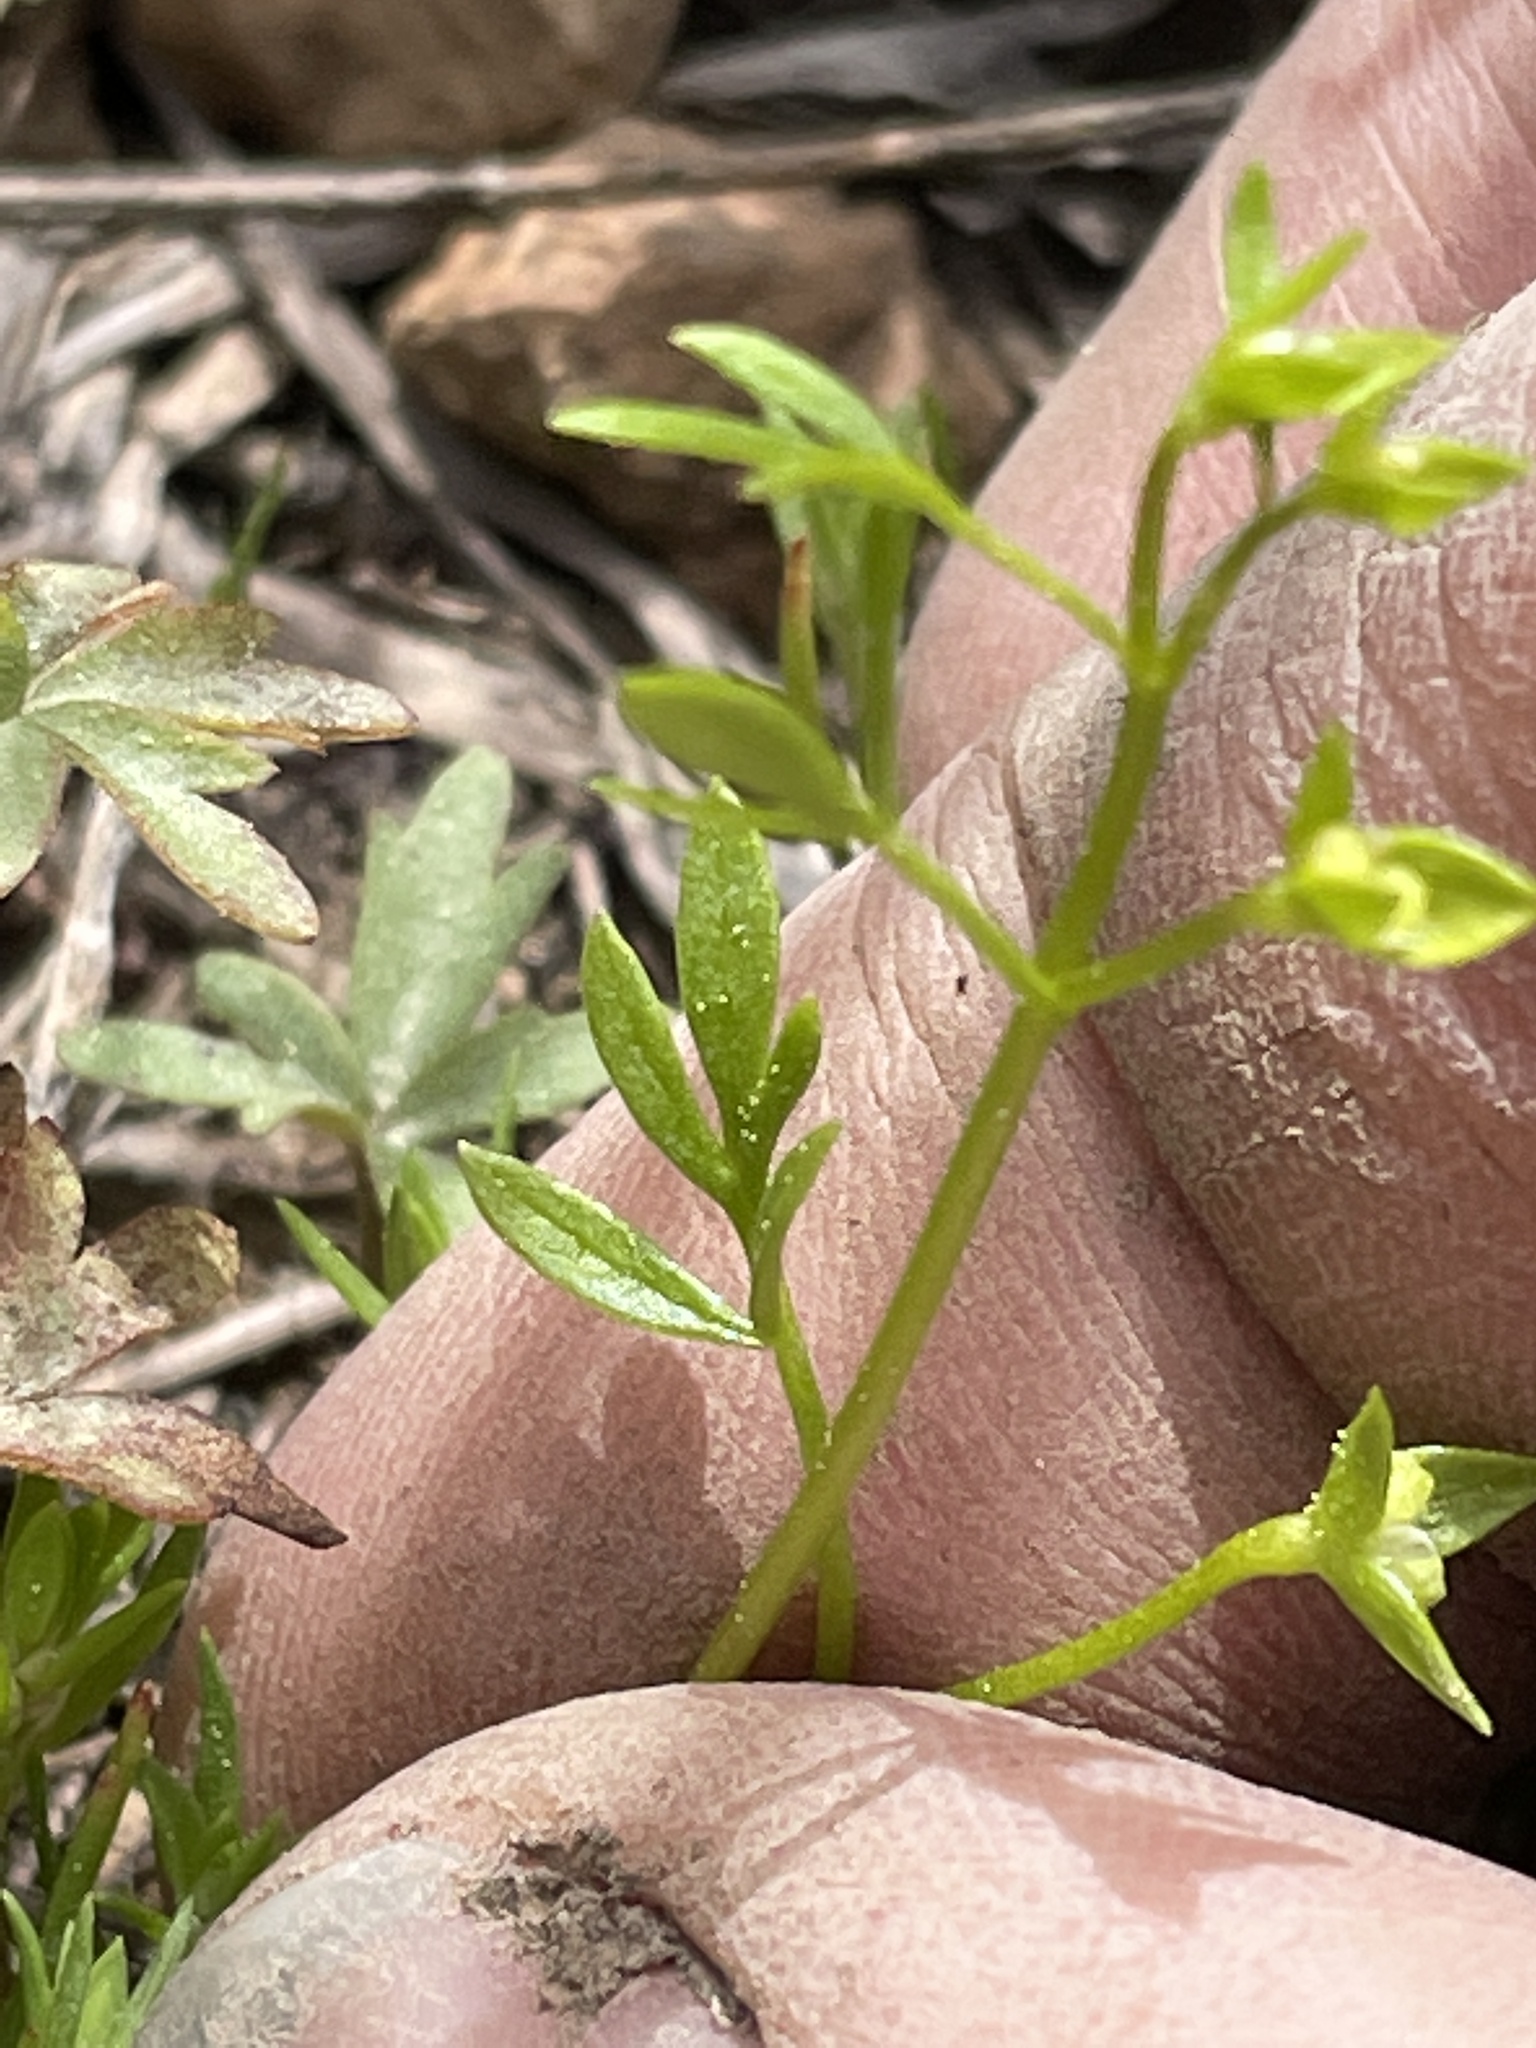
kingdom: Plantae
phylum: Tracheophyta
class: Magnoliopsida
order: Brassicales
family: Limnanthaceae
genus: Floerkea
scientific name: Floerkea proserpinacoides
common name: False mermaid
